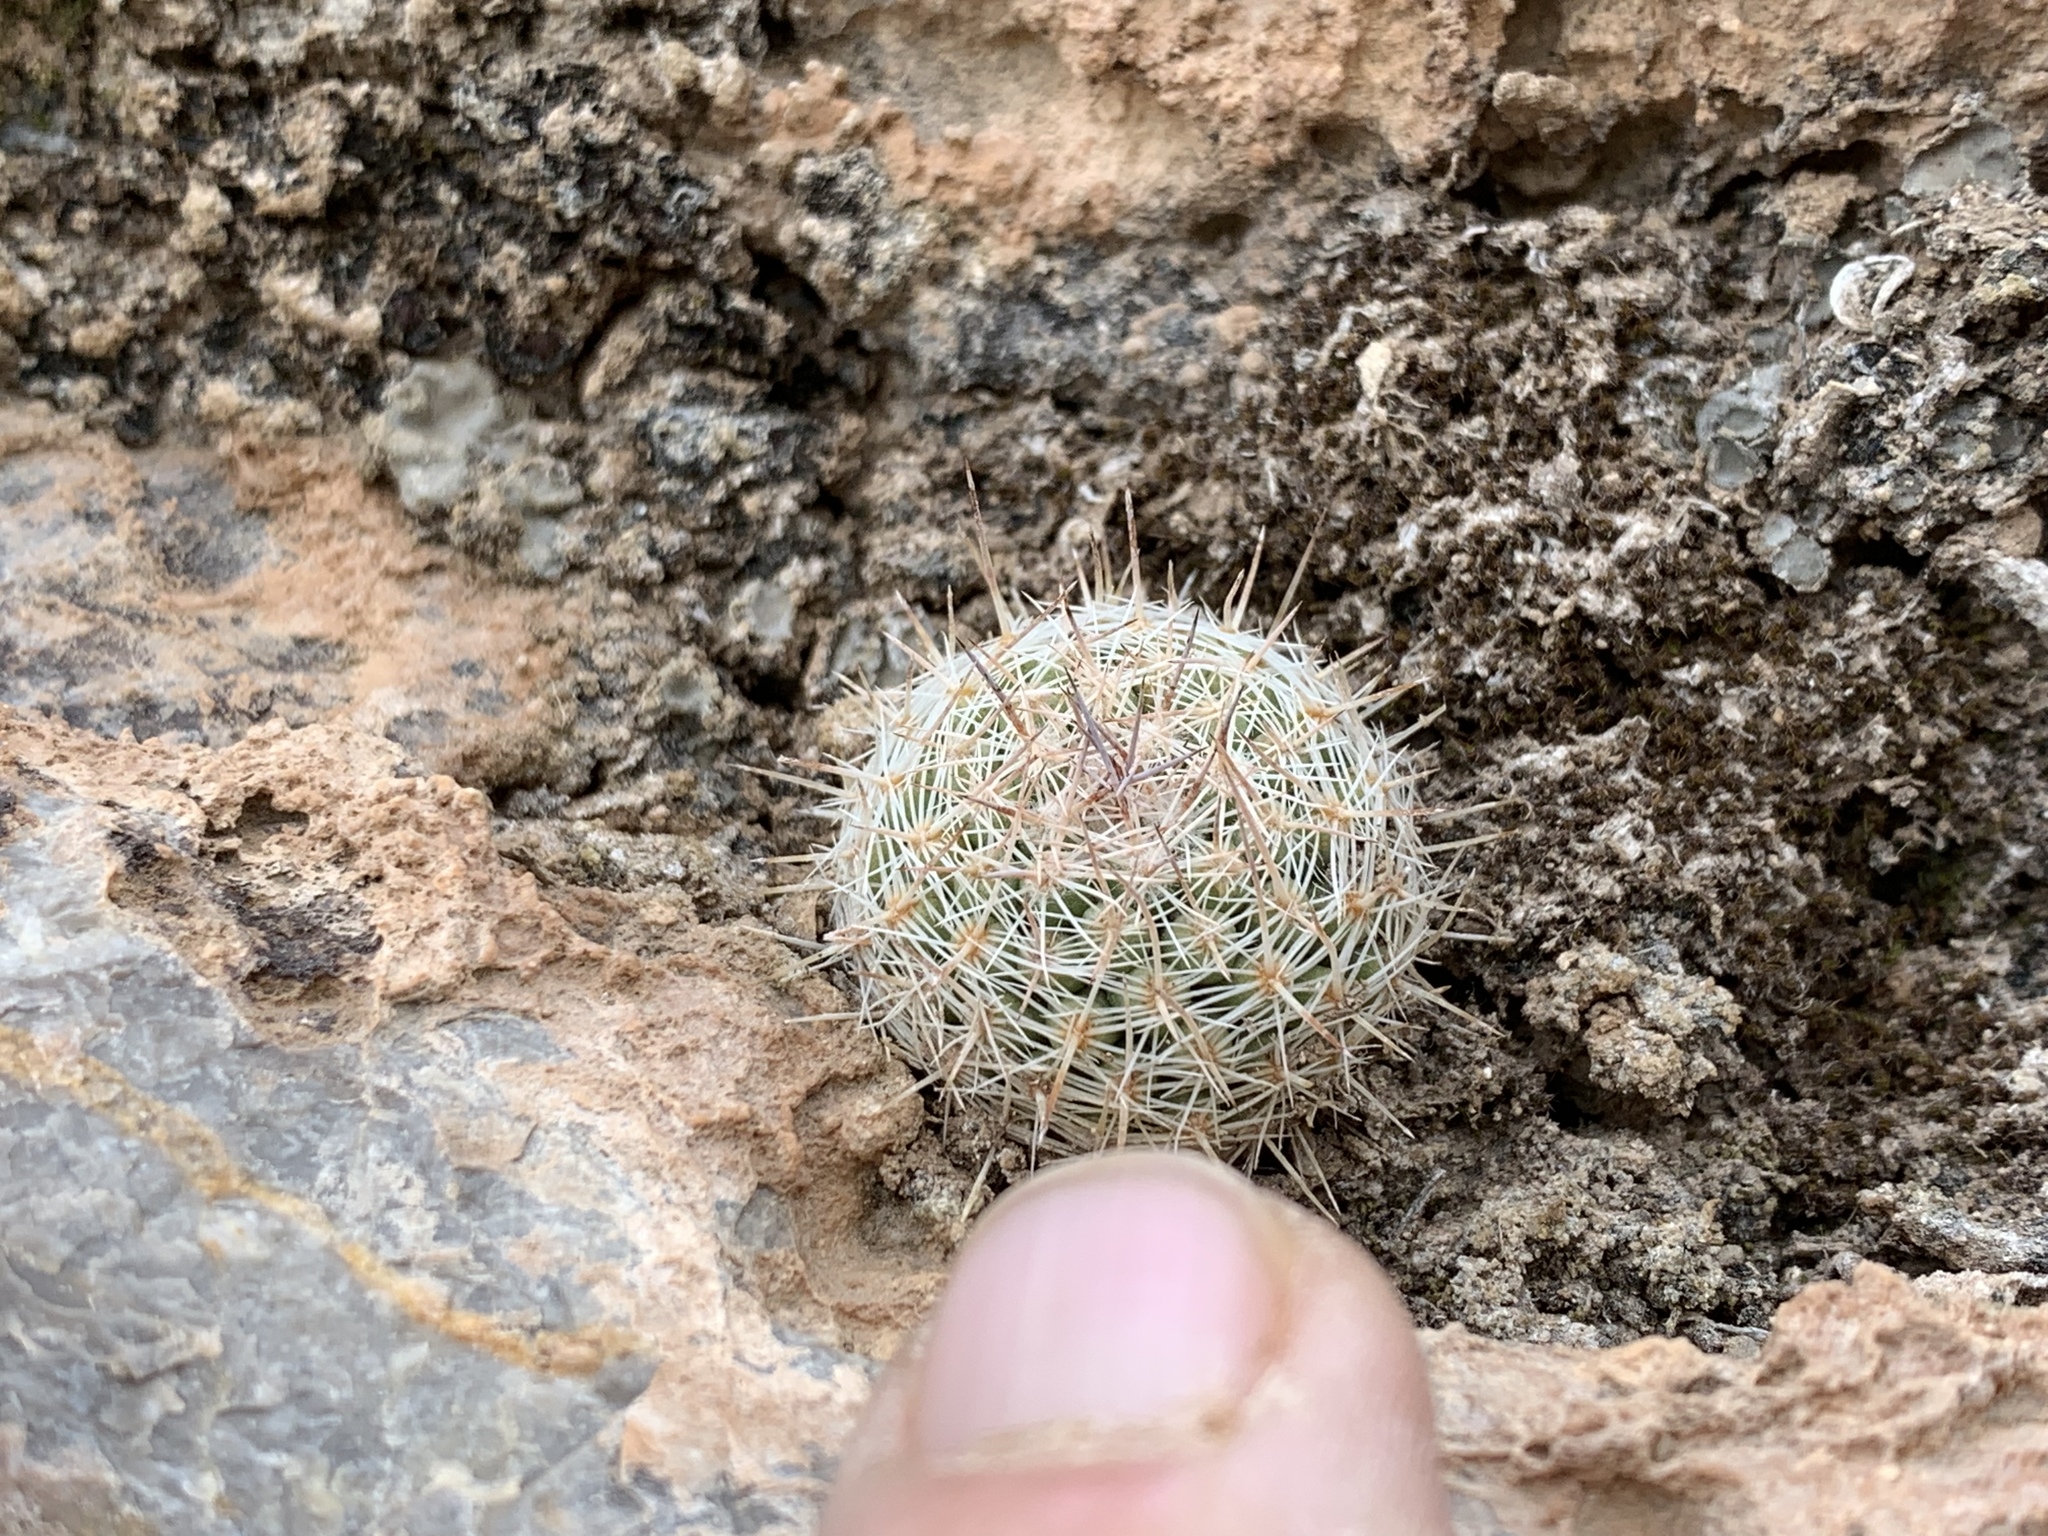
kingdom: Plantae
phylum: Tracheophyta
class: Magnoliopsida
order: Caryophyllales
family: Cactaceae
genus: Pelecyphora
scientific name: Pelecyphora tuberculosa
